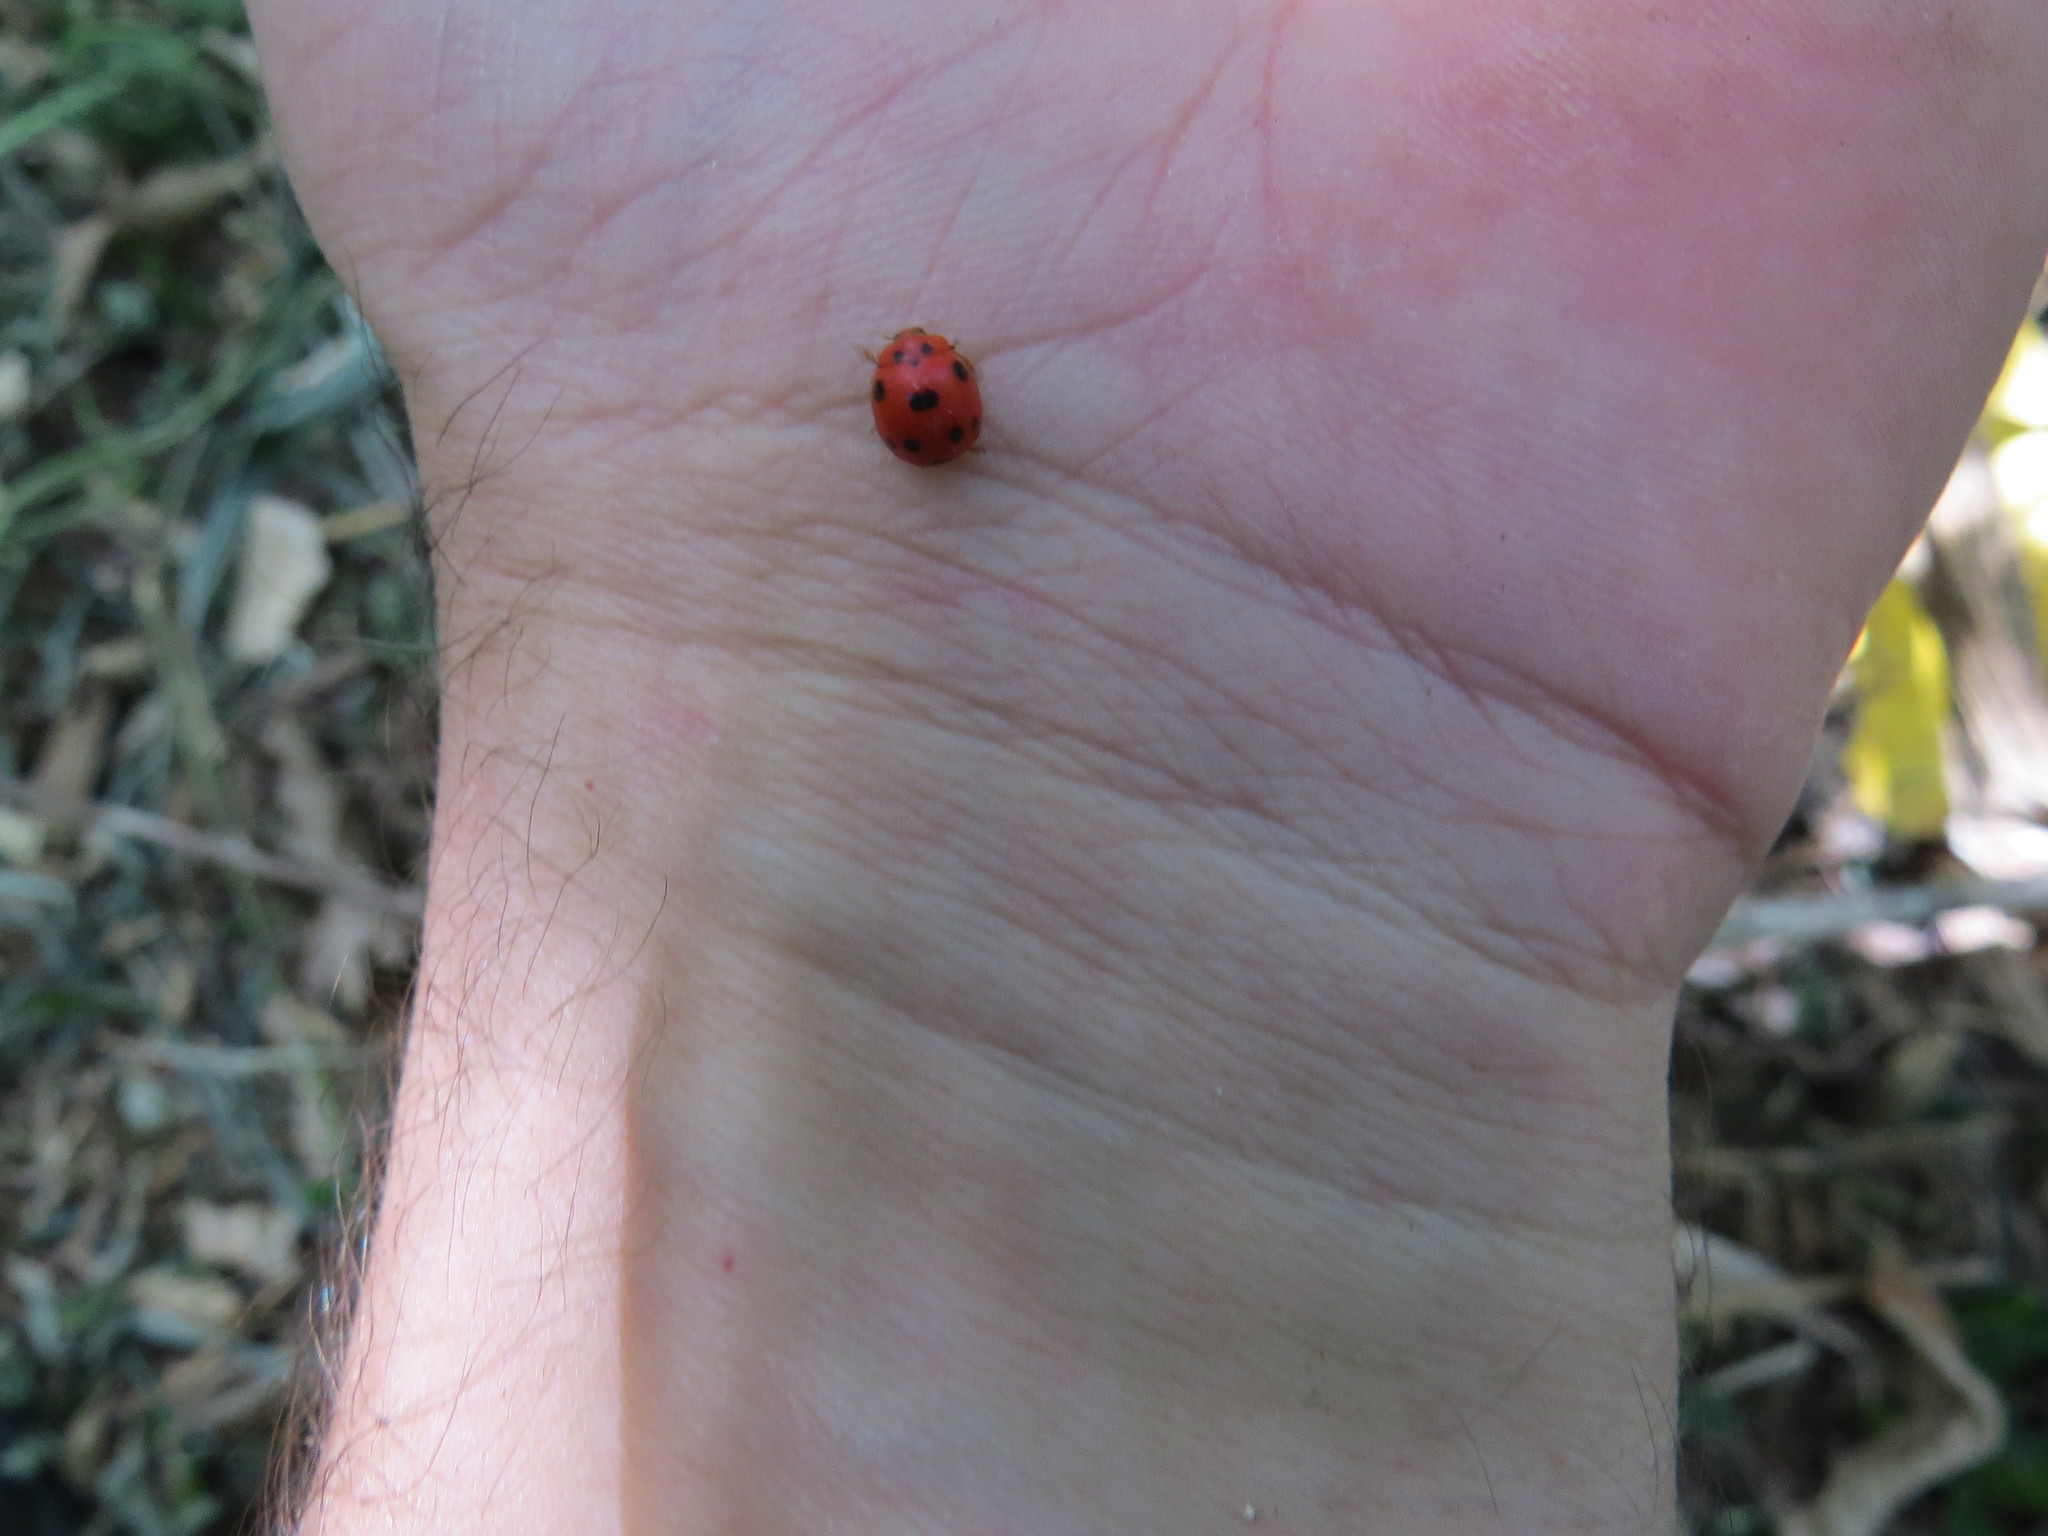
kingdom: Animalia
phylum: Arthropoda
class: Insecta
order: Coleoptera
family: Coccinellidae
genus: Exoplectra
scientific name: Exoplectra
